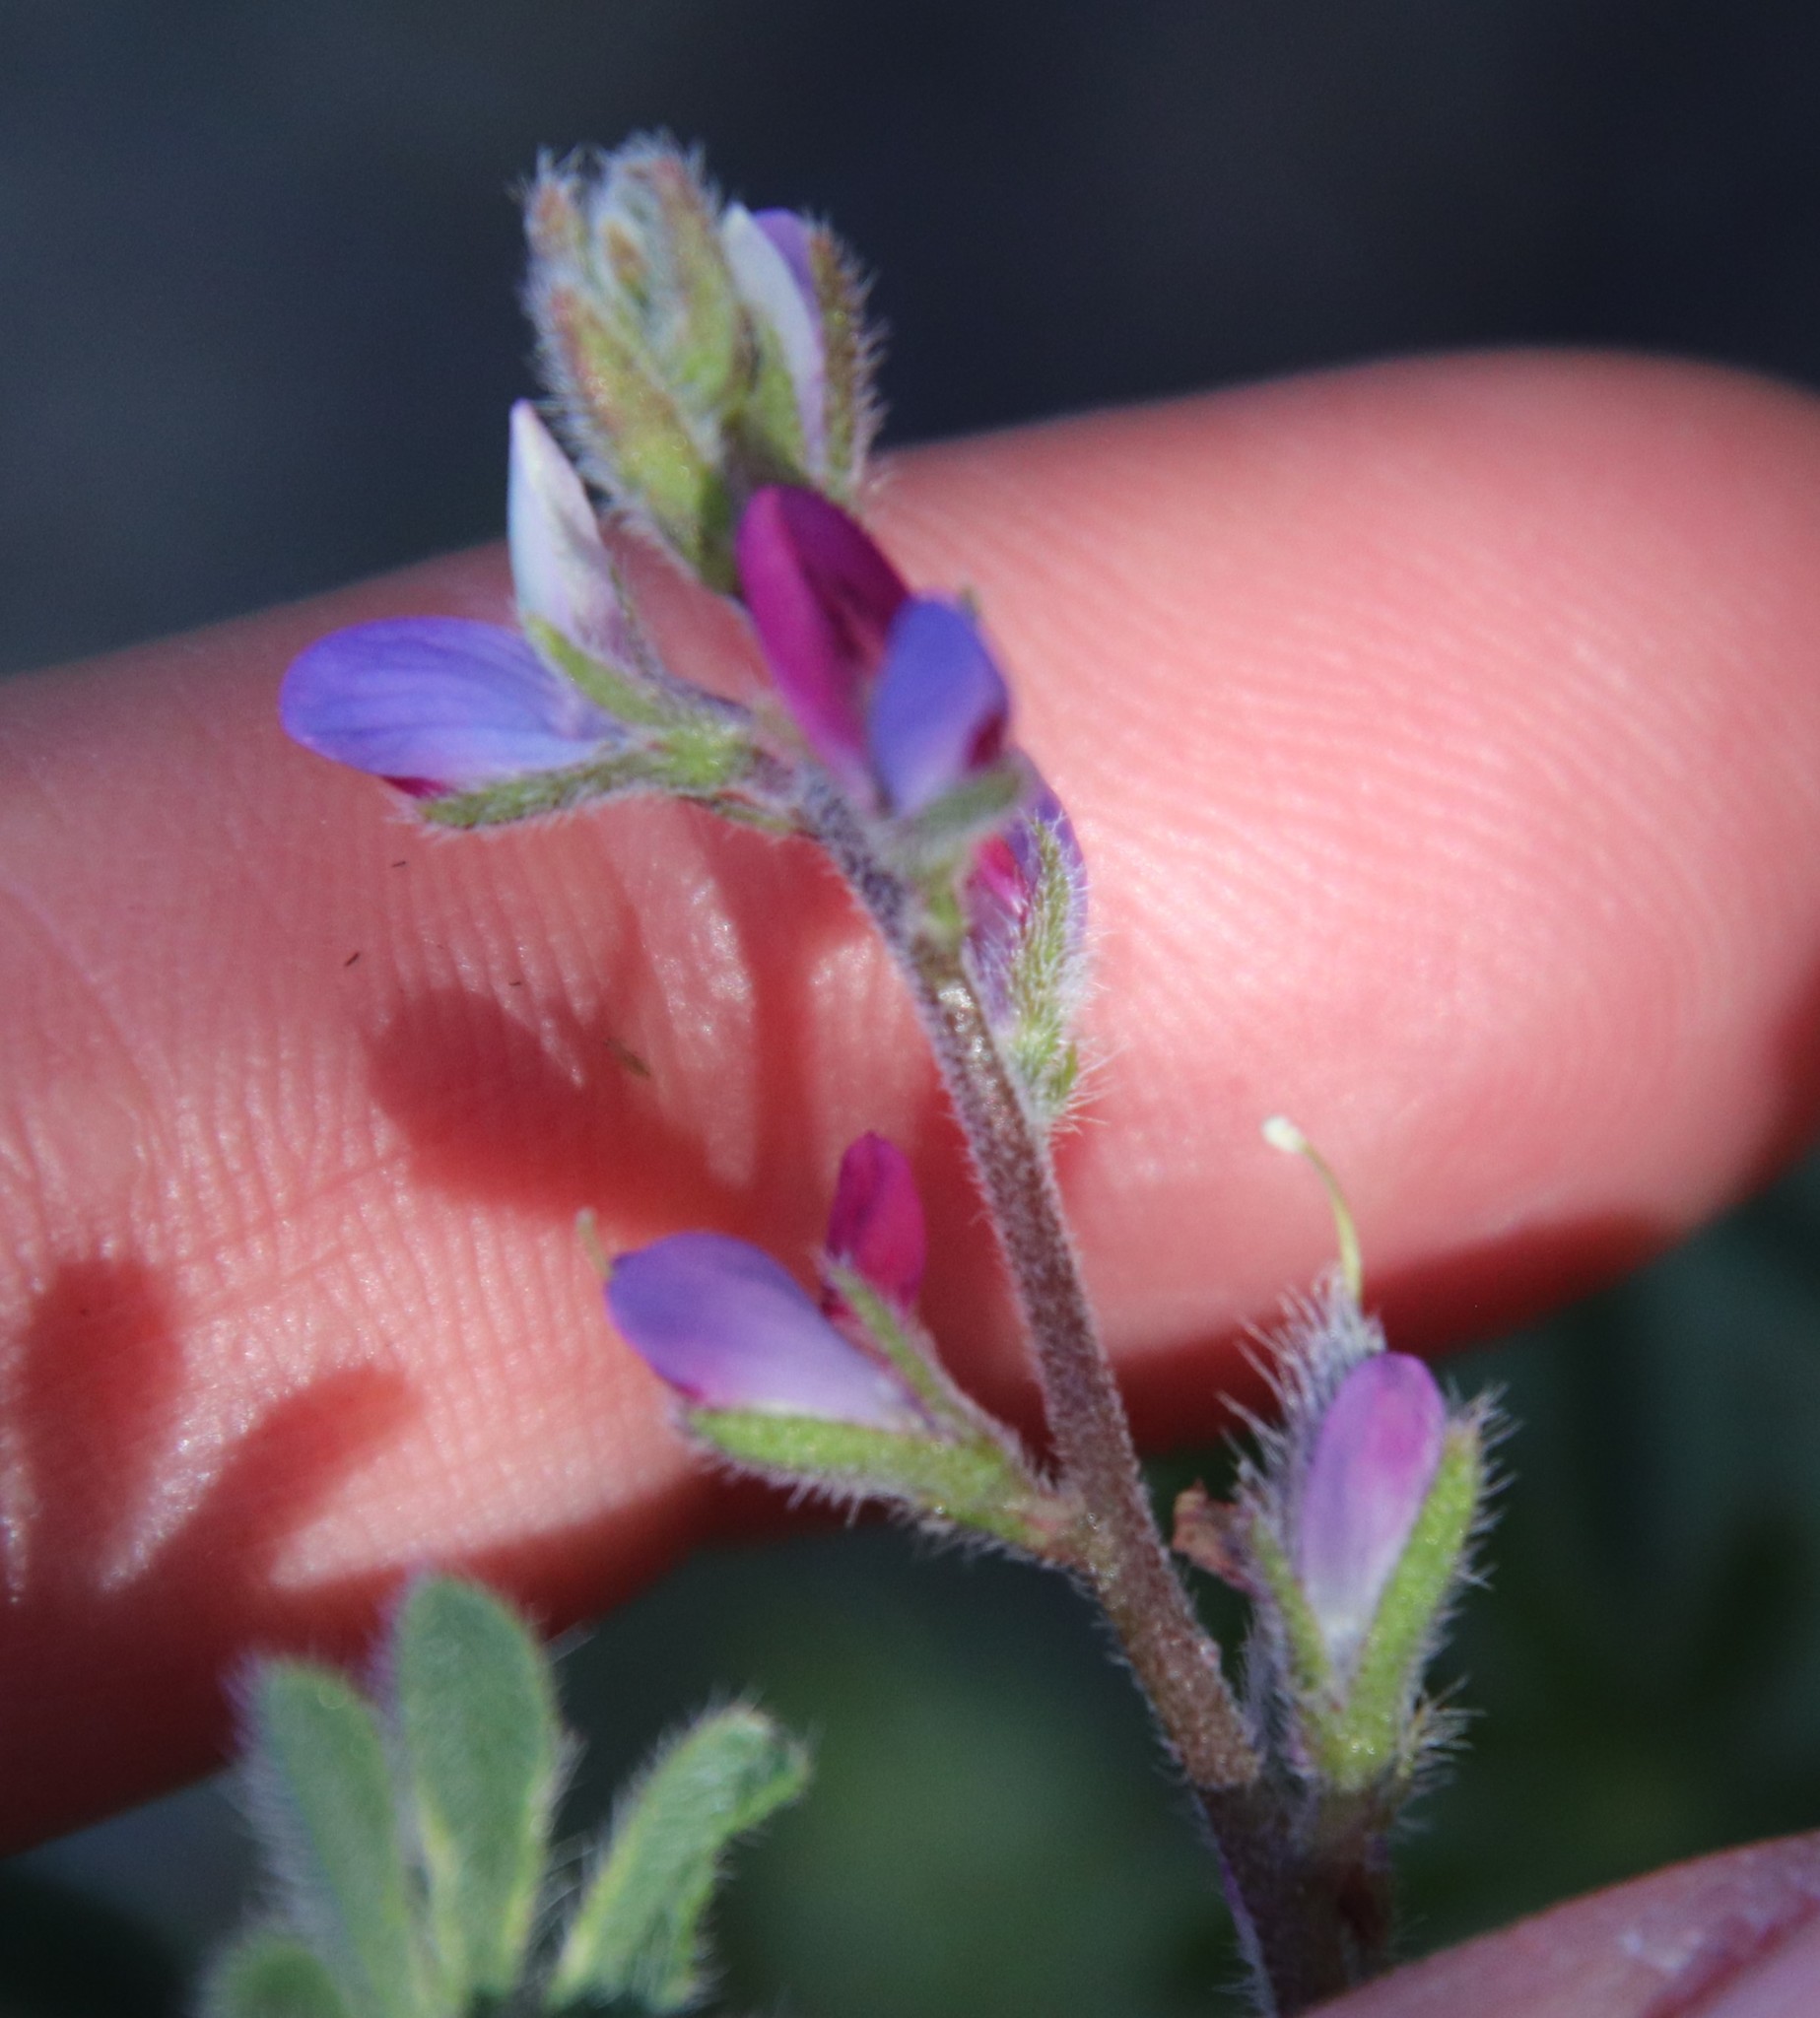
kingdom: Plantae
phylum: Tracheophyta
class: Magnoliopsida
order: Fabales
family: Fabaceae
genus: Lupinus
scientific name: Lupinus concinnus
